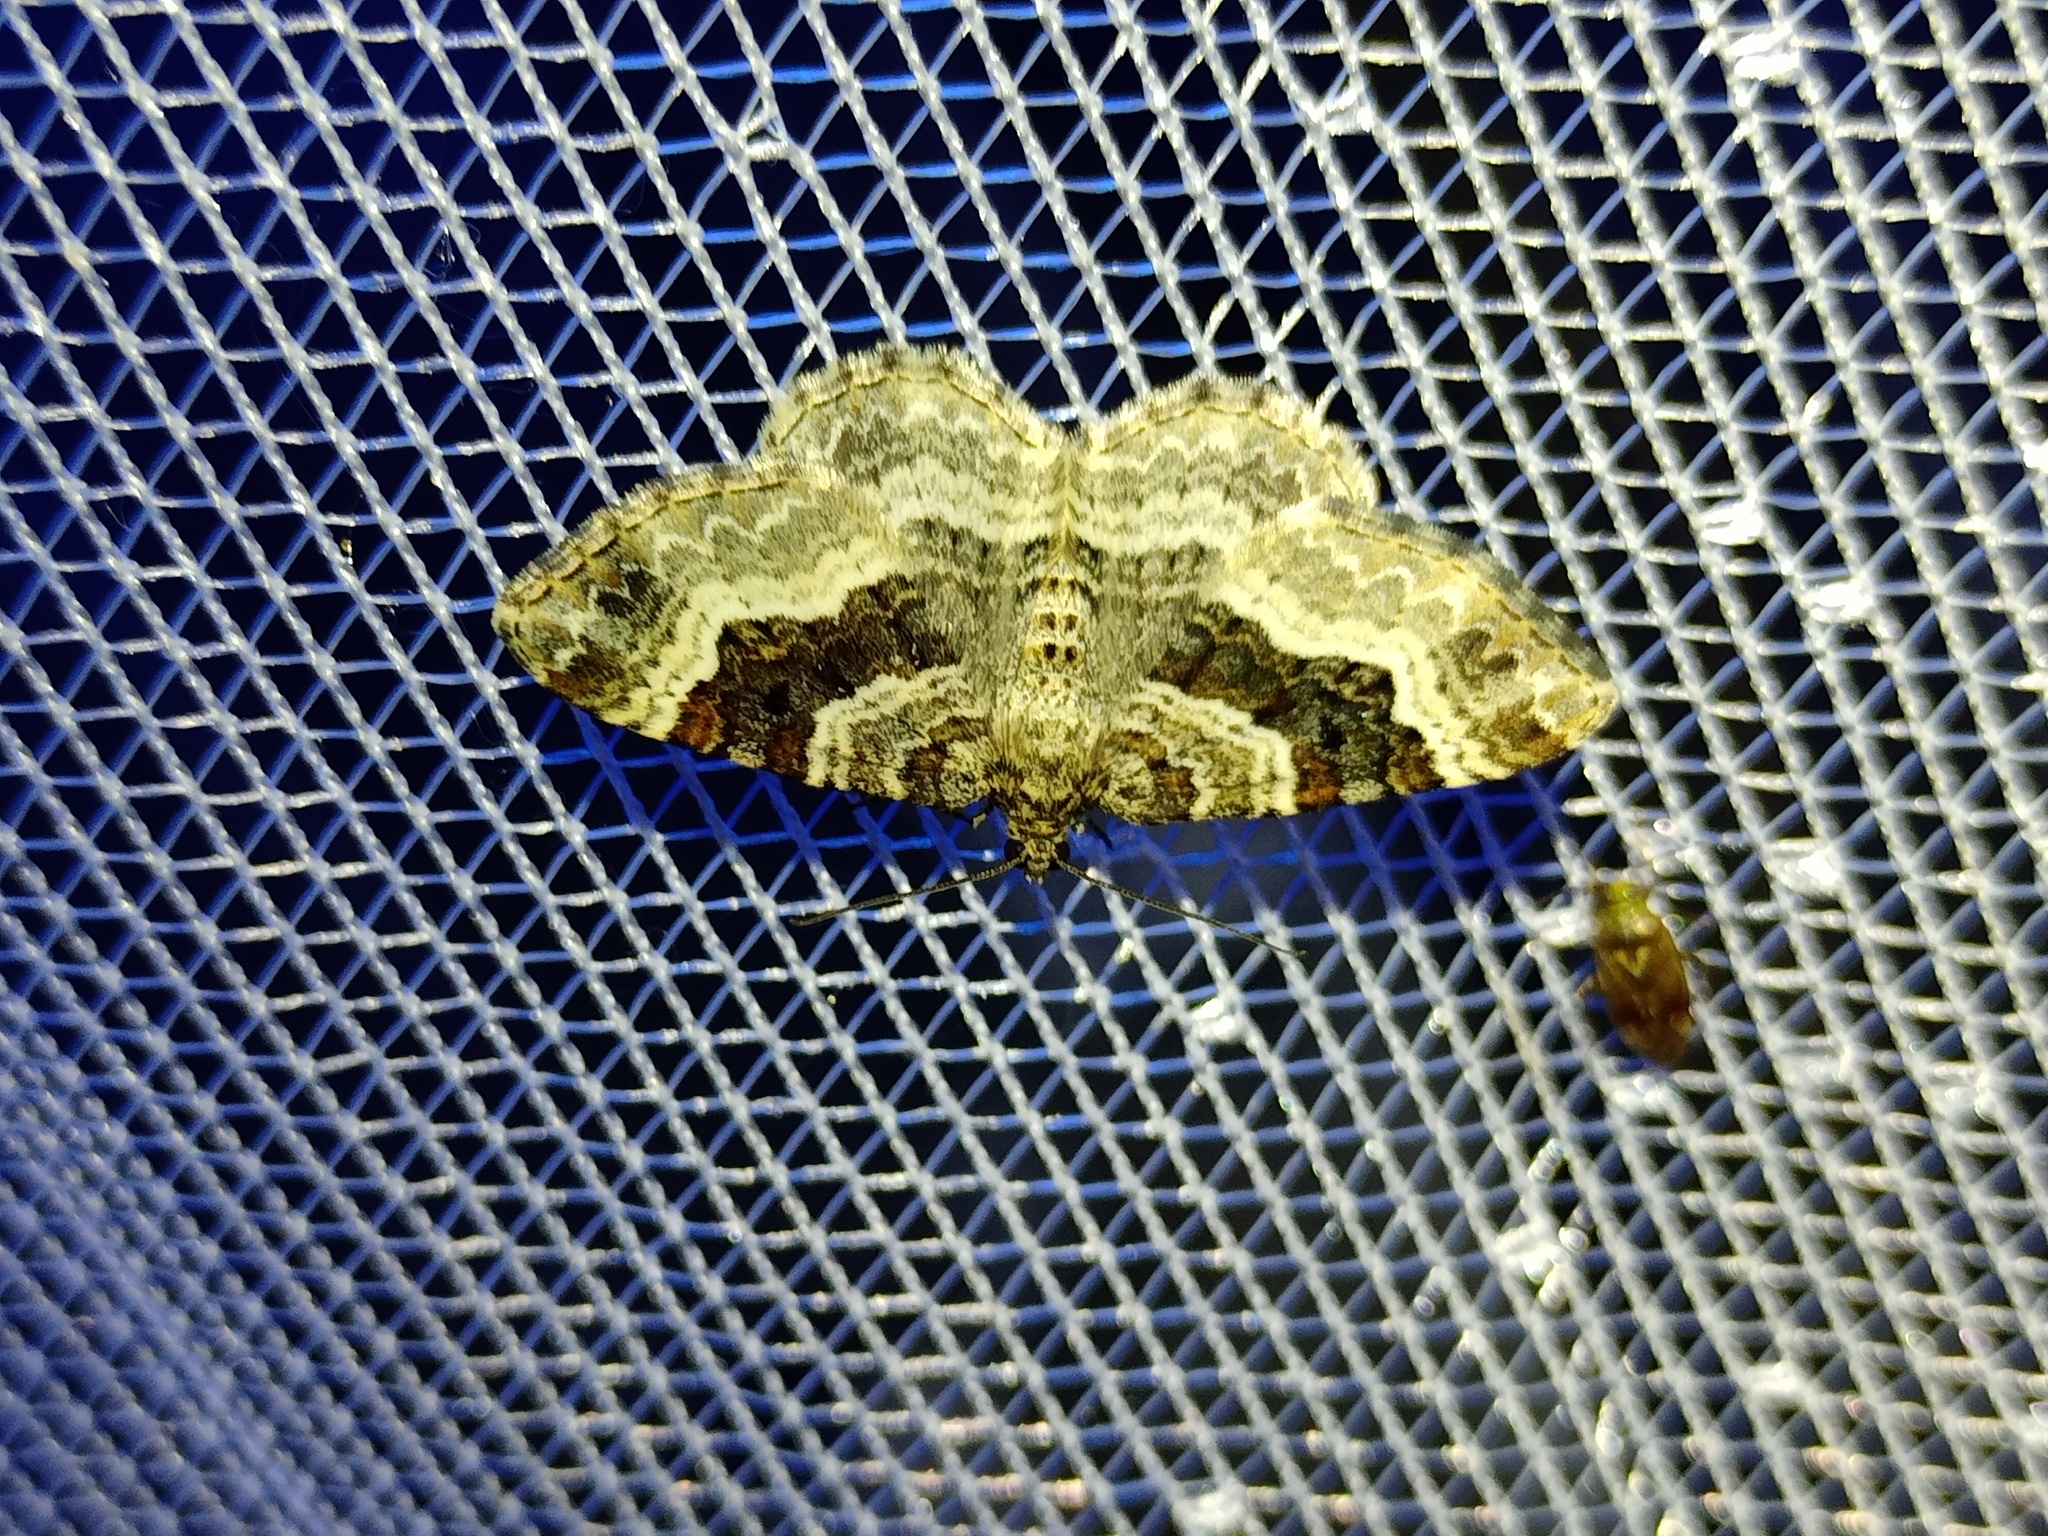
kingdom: Animalia
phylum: Arthropoda
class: Insecta
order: Lepidoptera
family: Geometridae
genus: Epirrhoe
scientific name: Epirrhoe alternata
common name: Common carpet
